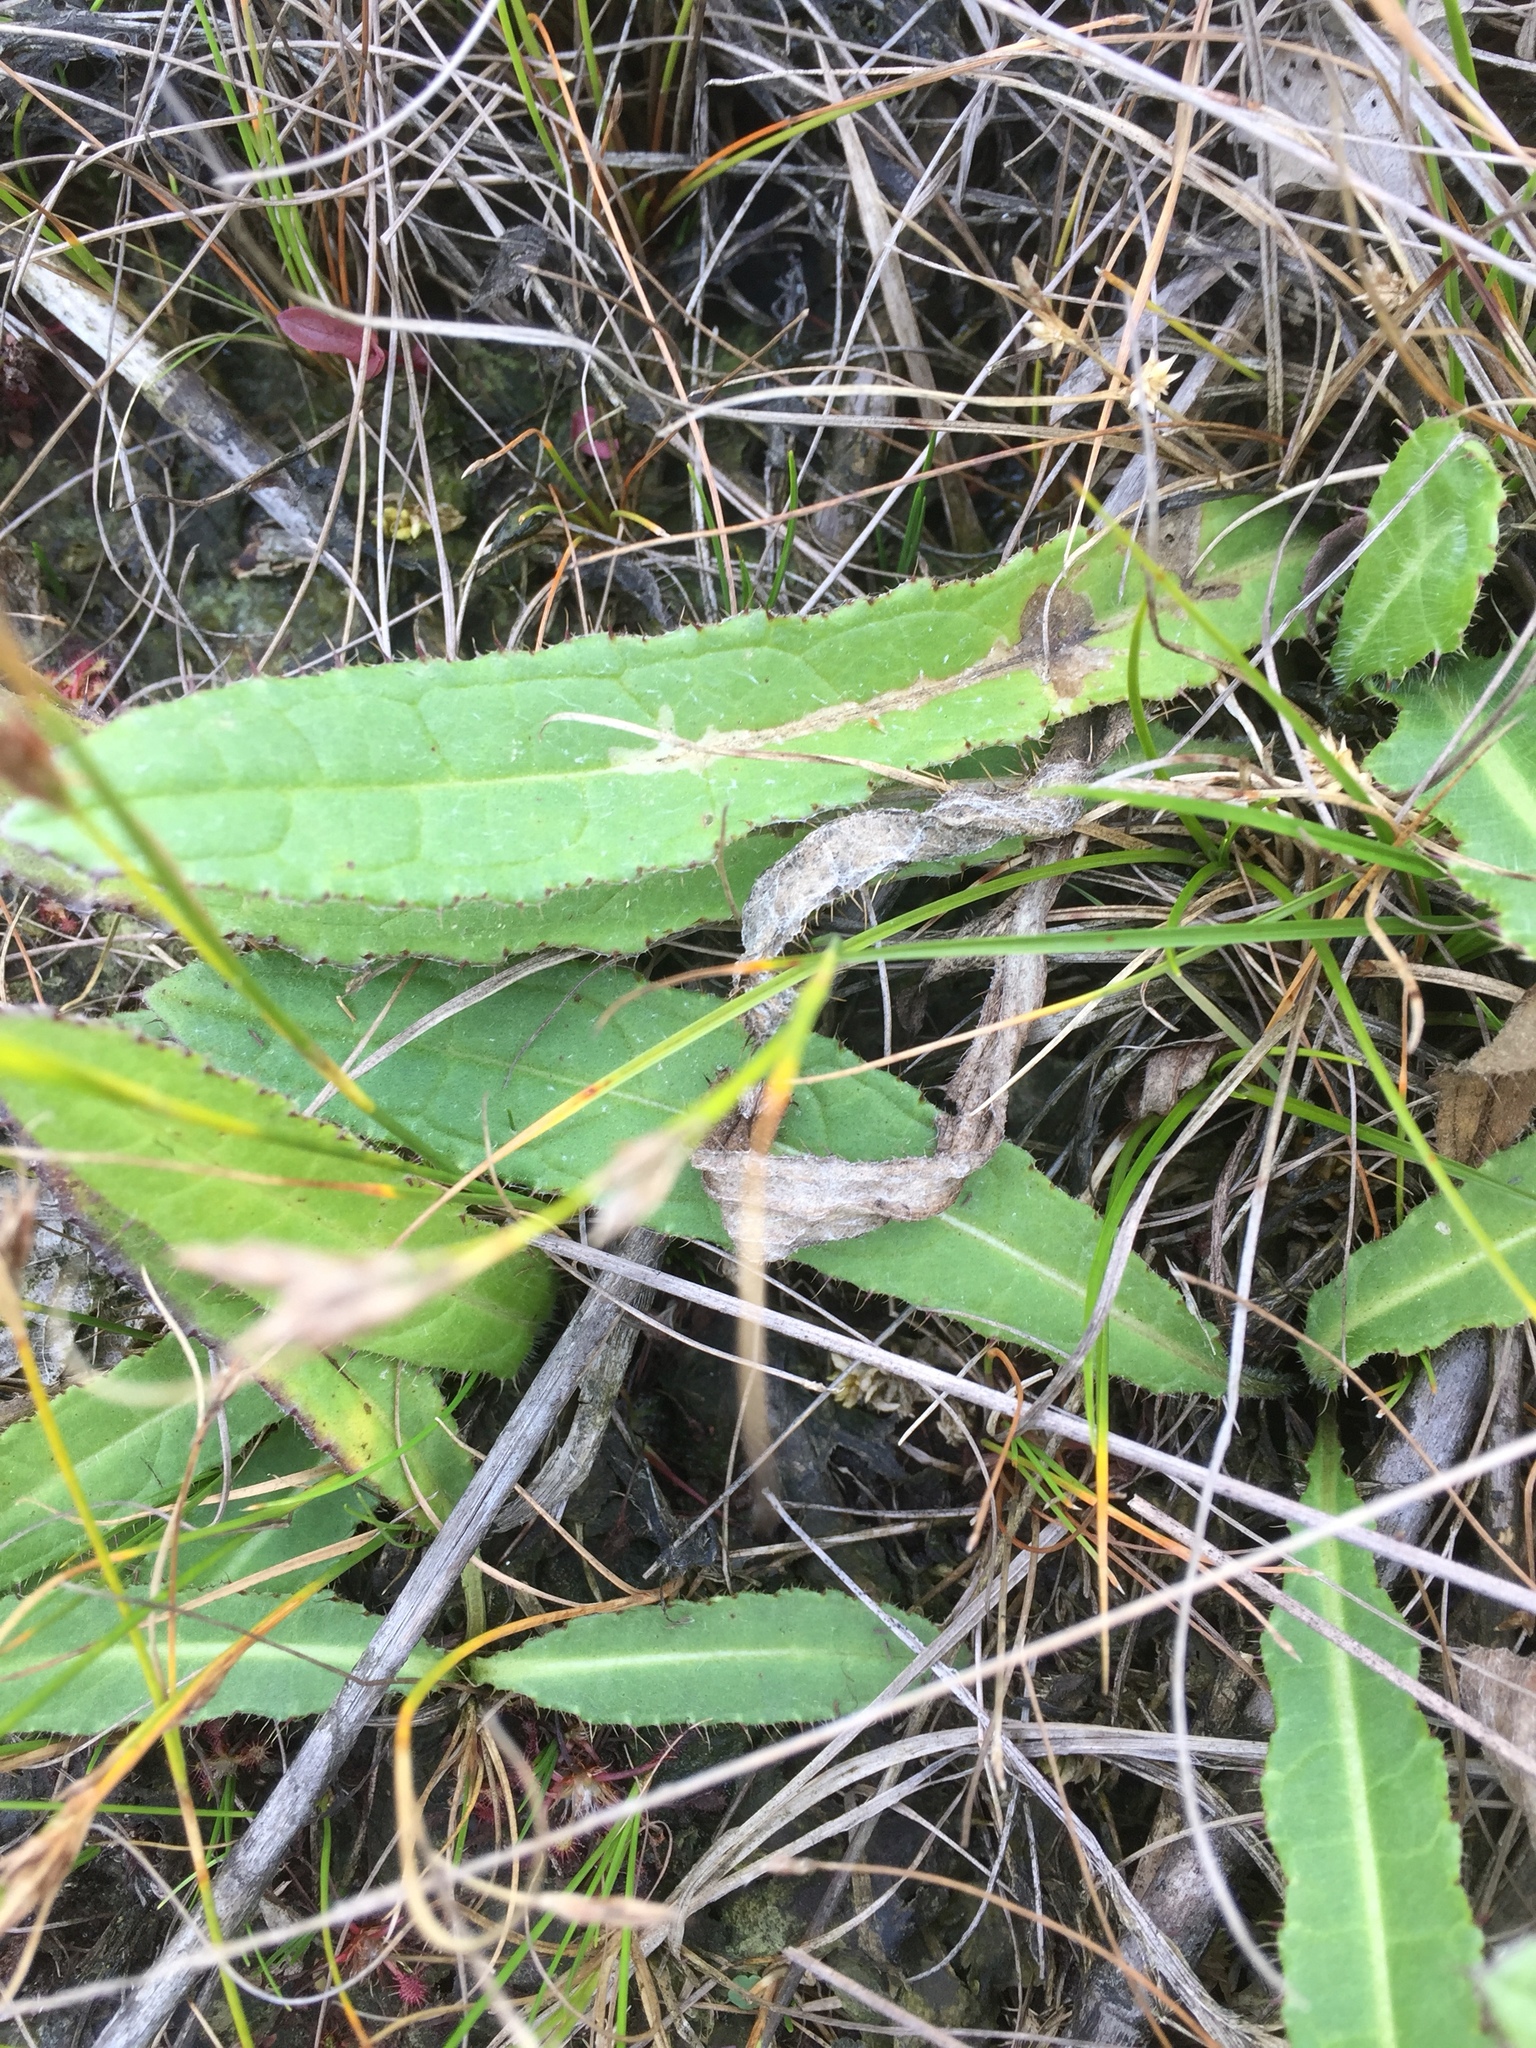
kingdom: Plantae
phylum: Tracheophyta
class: Magnoliopsida
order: Asterales
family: Asteraceae
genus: Cirsium
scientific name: Cirsium dissectum
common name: Meadow thistle
